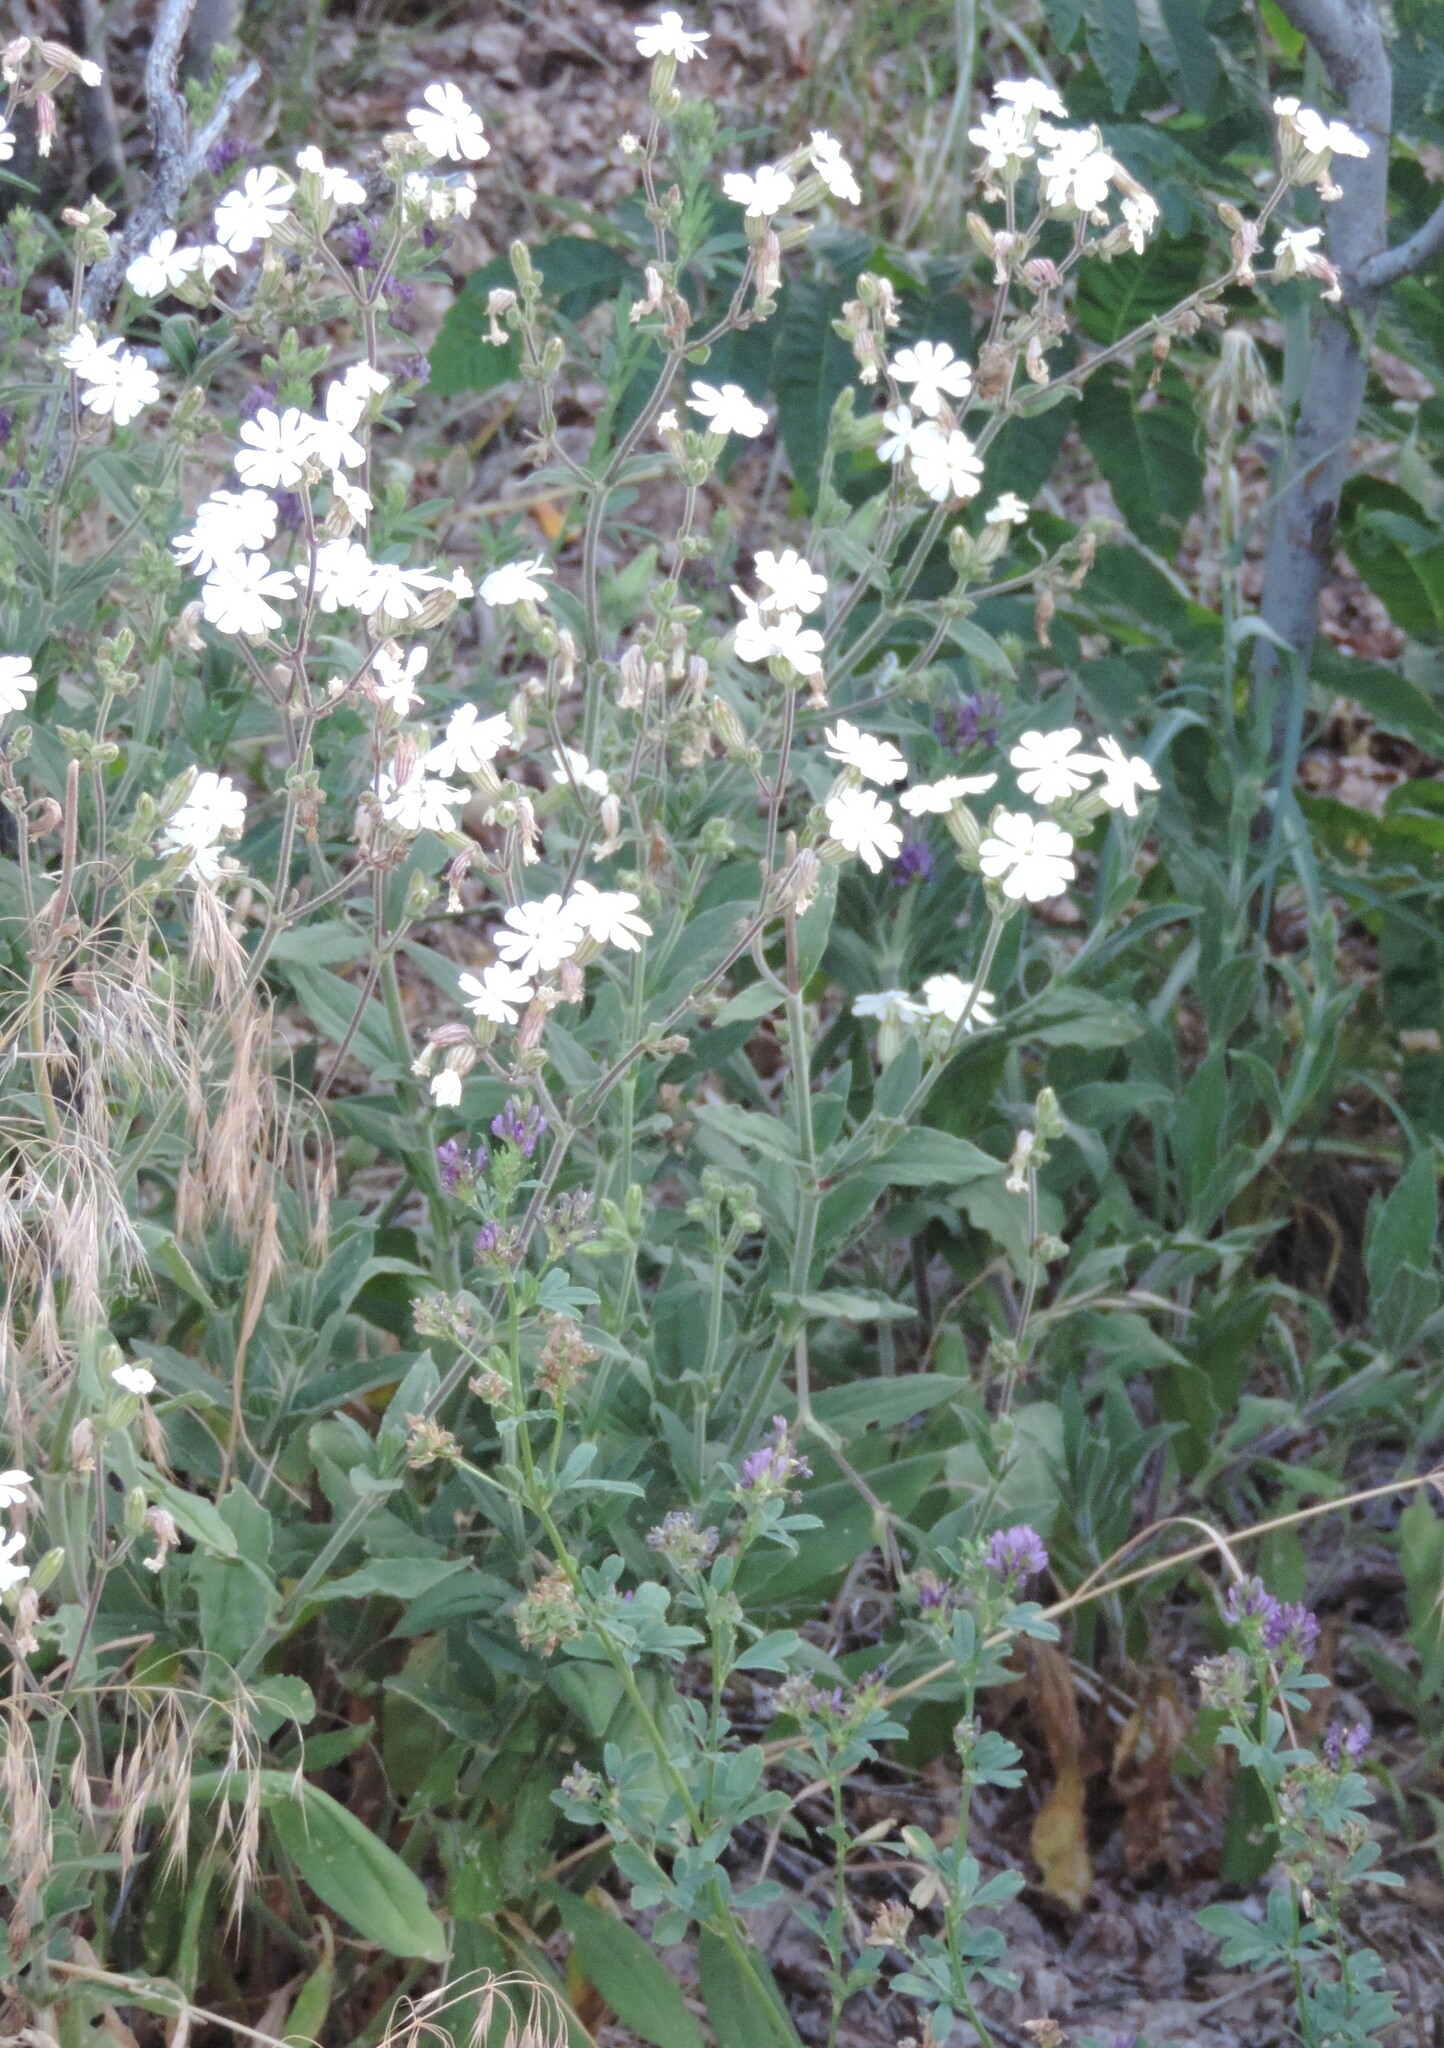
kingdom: Plantae
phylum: Tracheophyta
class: Magnoliopsida
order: Caryophyllales
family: Caryophyllaceae
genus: Silene
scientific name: Silene latifolia
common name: White campion
